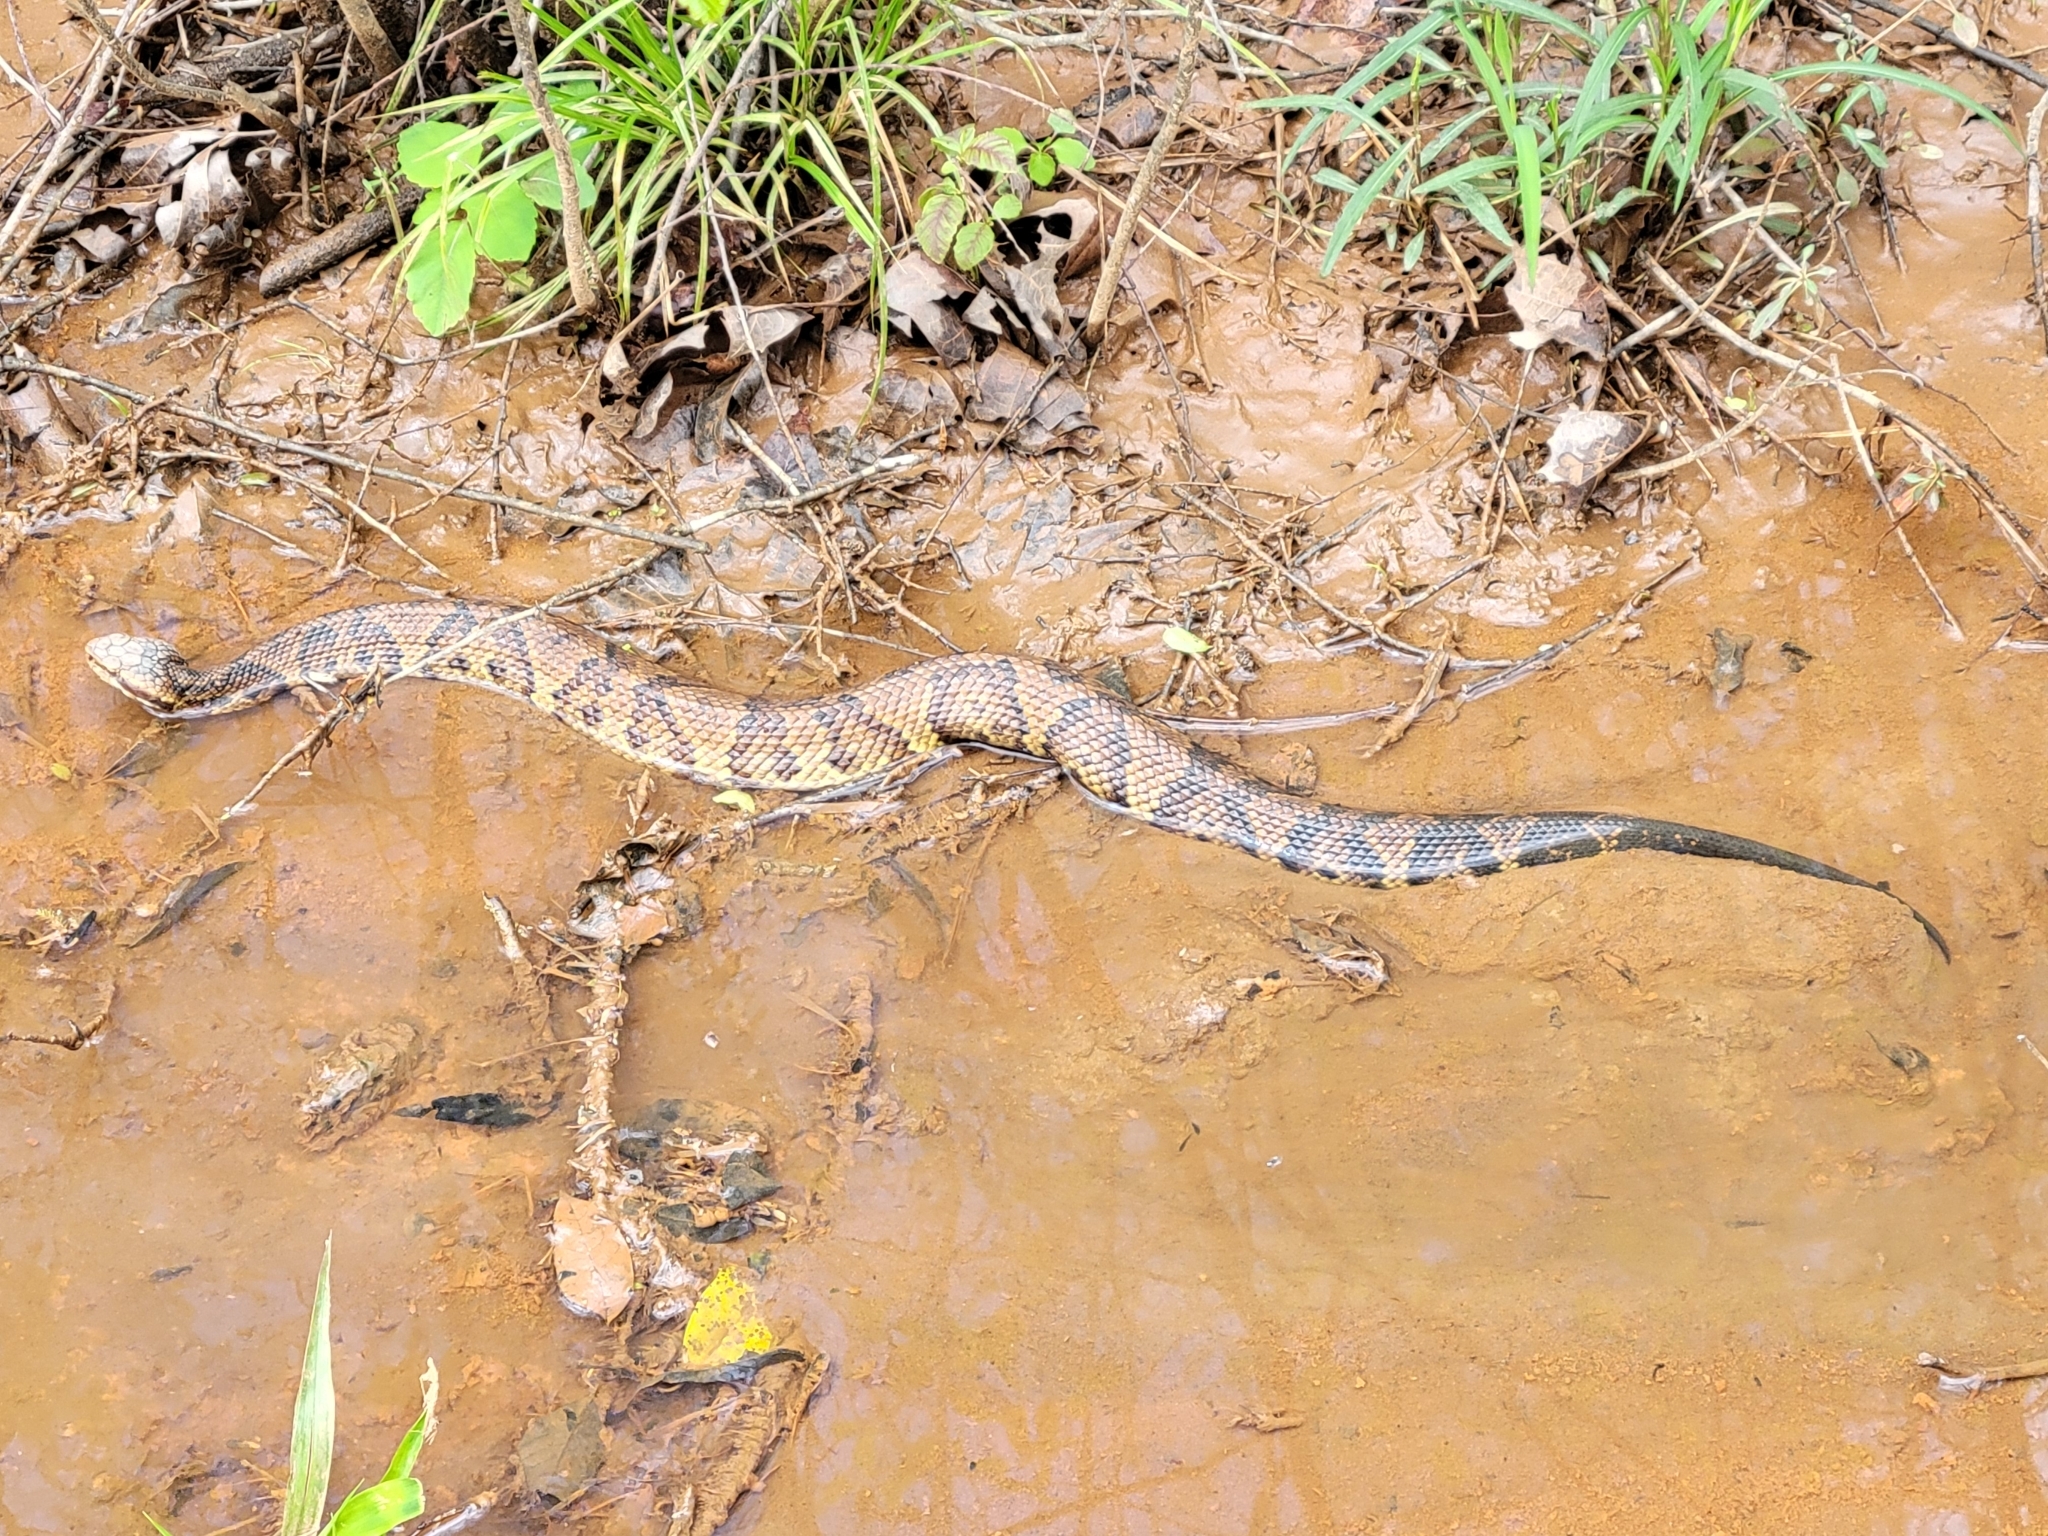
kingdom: Animalia
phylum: Chordata
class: Squamata
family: Viperidae
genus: Agkistrodon
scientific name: Agkistrodon piscivorus
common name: Cottonmouth
